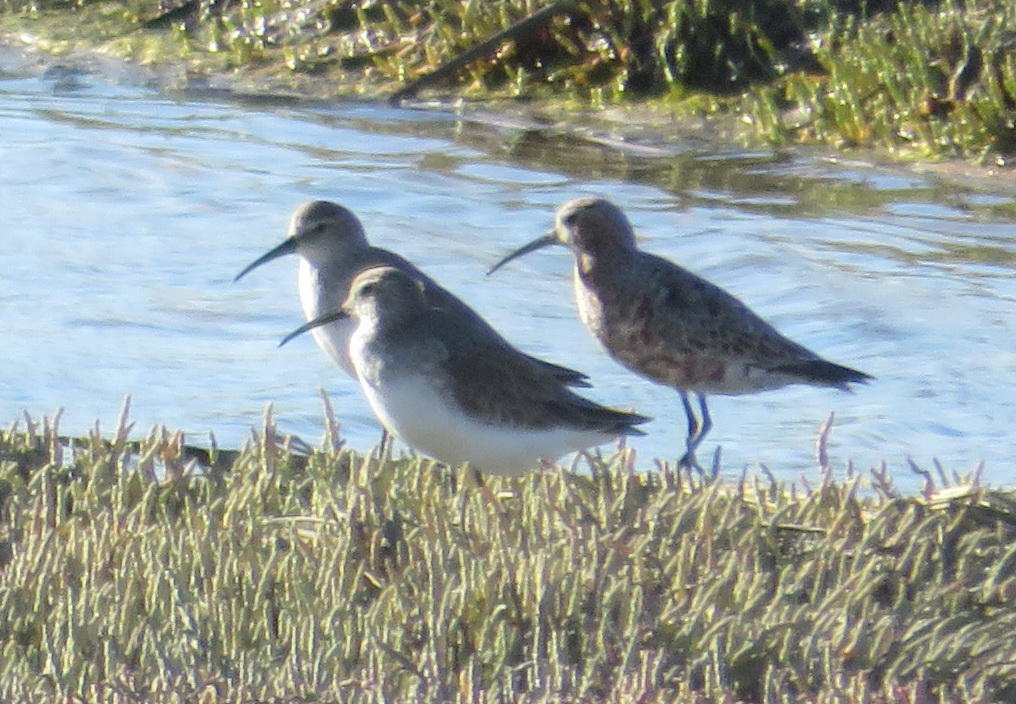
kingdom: Animalia
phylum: Chordata
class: Aves
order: Charadriiformes
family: Scolopacidae
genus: Calidris
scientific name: Calidris ferruginea
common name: Curlew sandpiper
